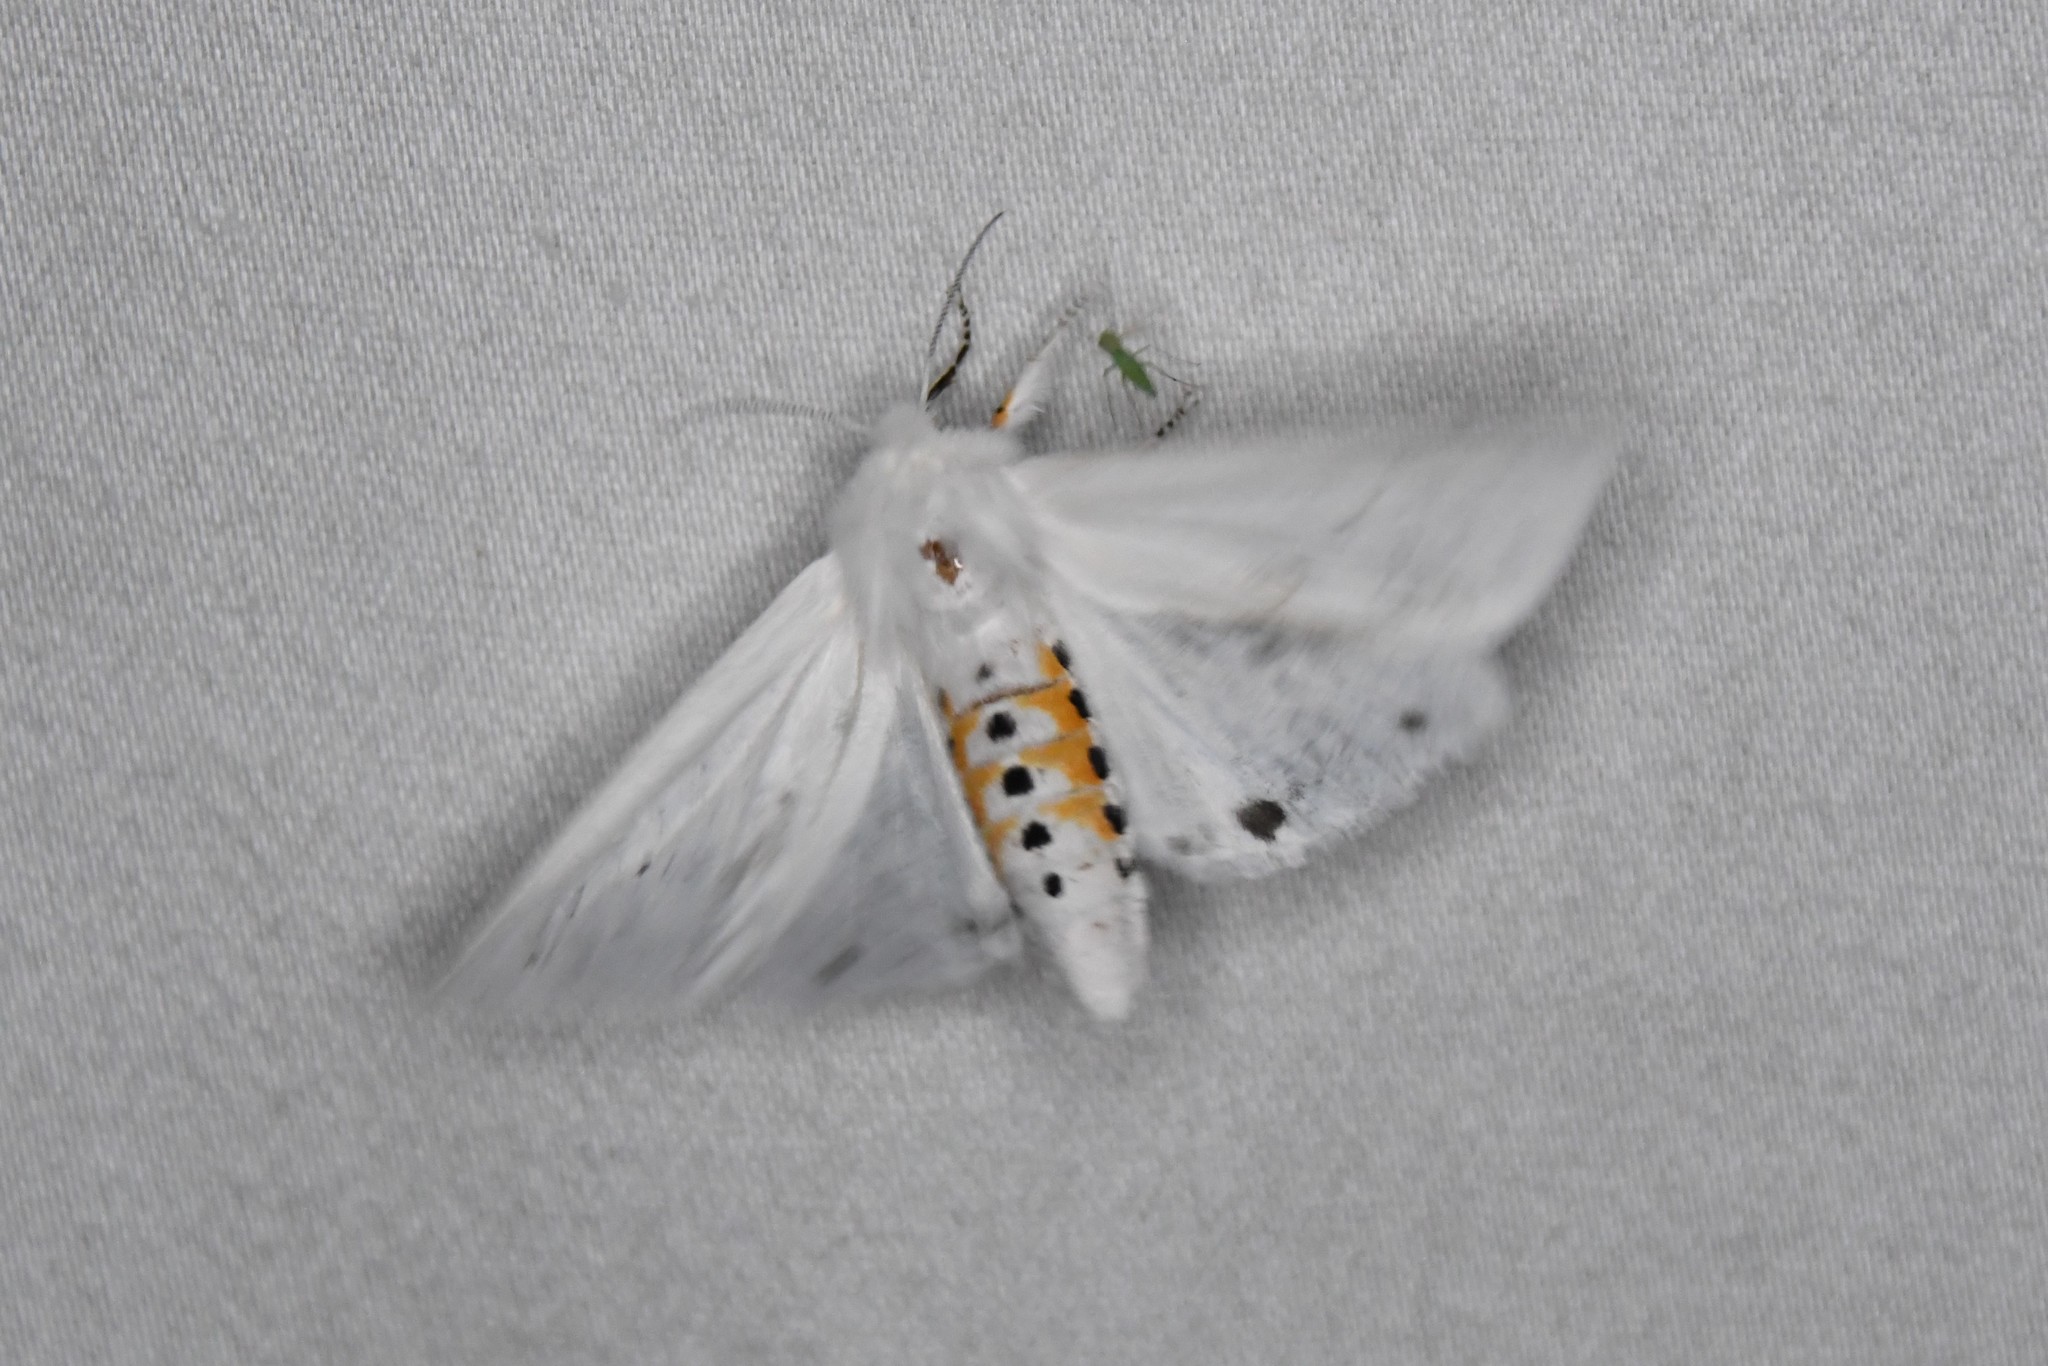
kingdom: Animalia
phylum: Arthropoda
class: Insecta
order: Lepidoptera
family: Erebidae
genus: Spilosoma
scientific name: Spilosoma virginica
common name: Virginia tiger moth
